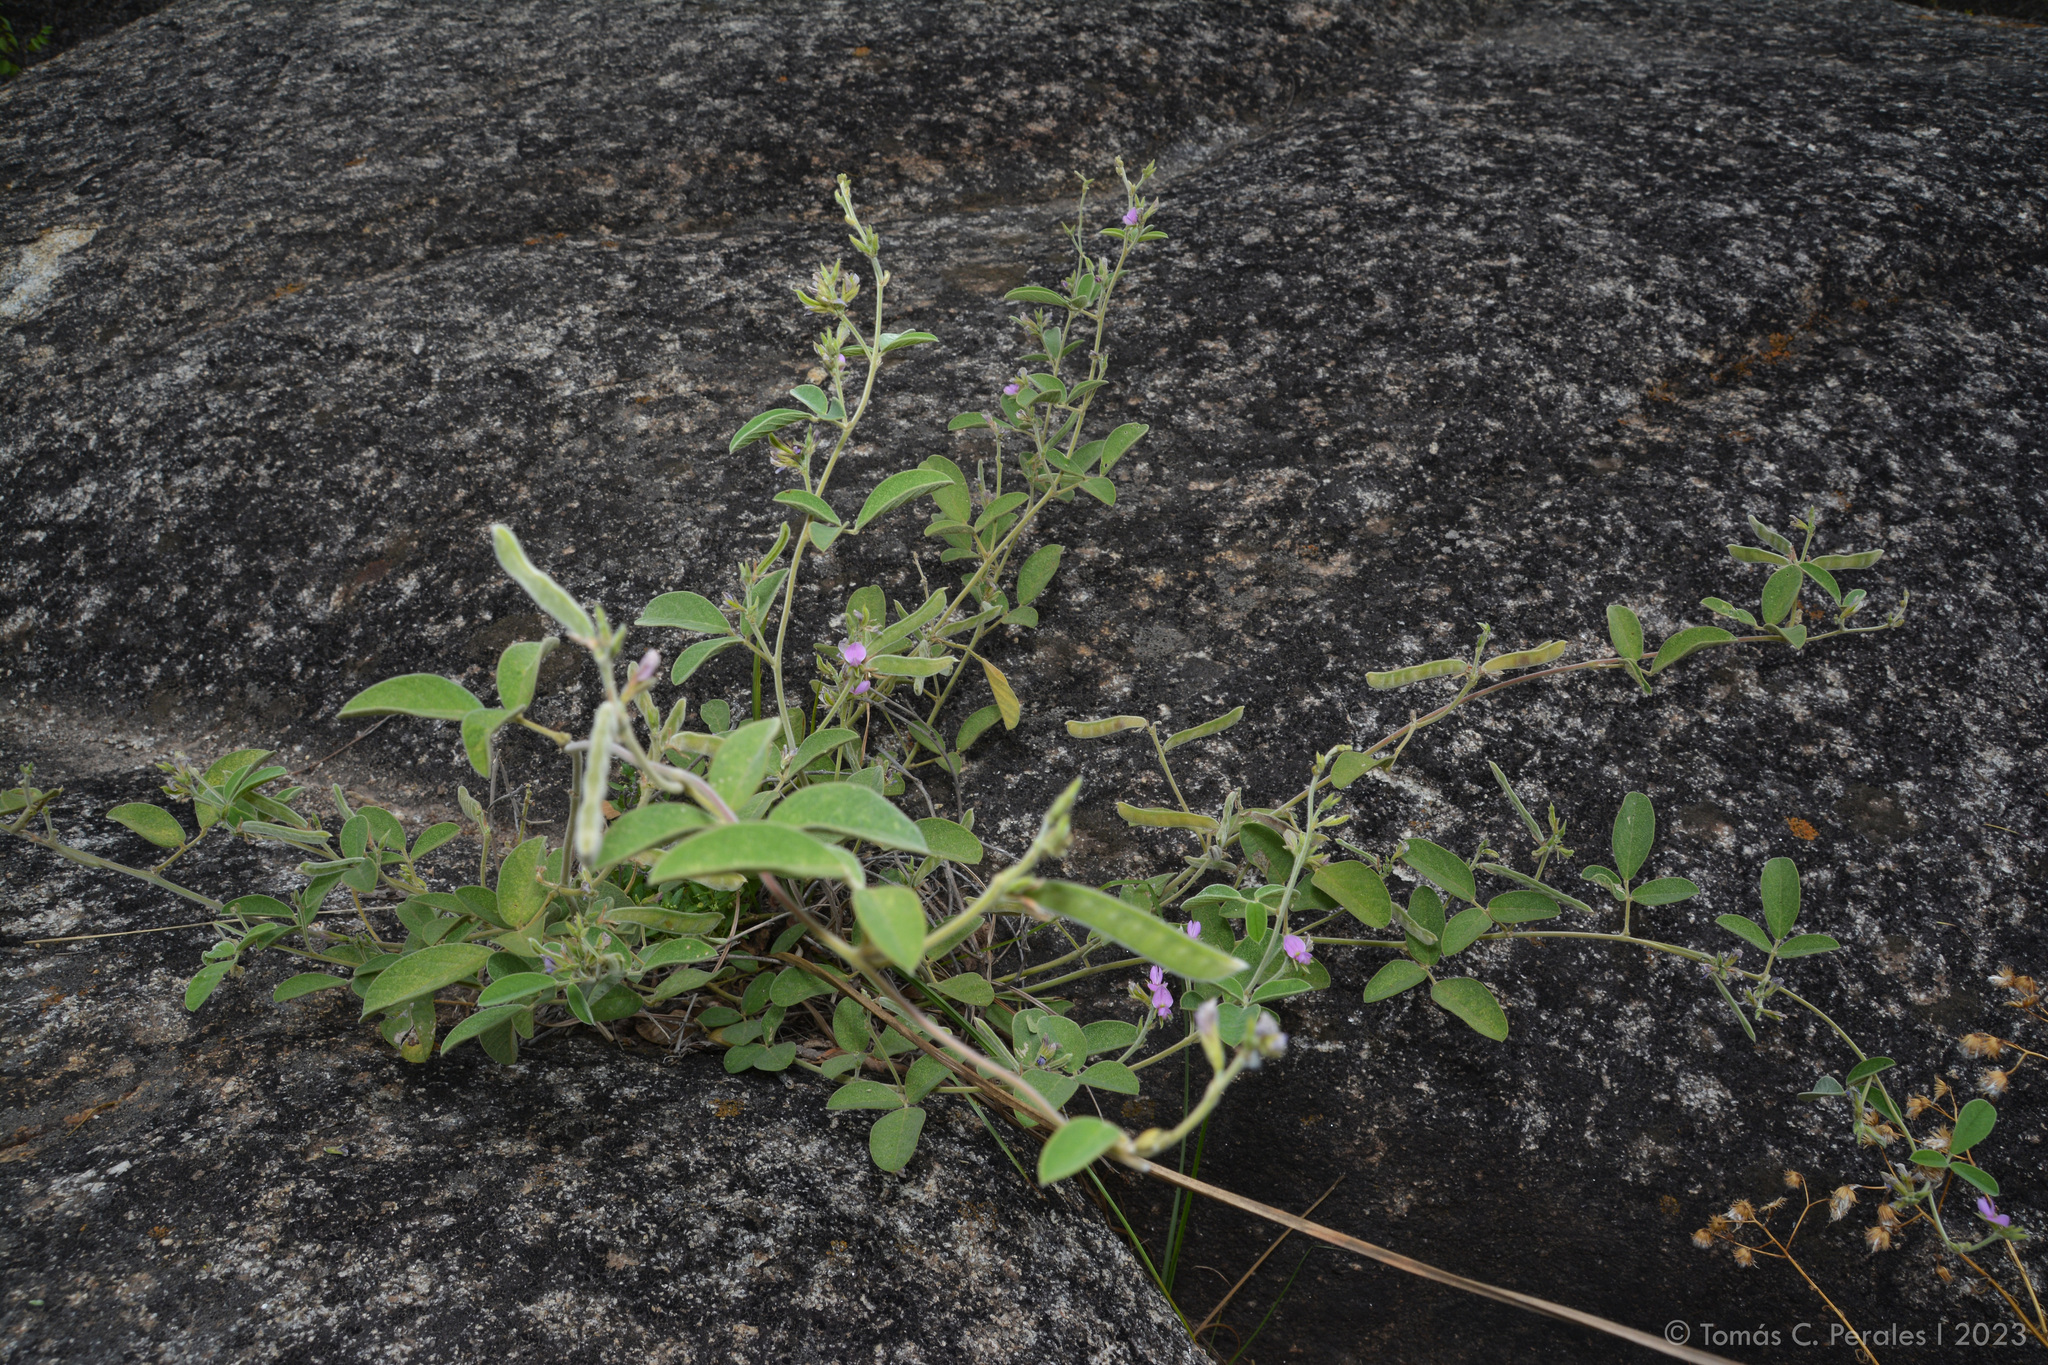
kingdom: Plantae
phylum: Tracheophyta
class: Magnoliopsida
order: Fabales
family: Fabaceae
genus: Galactia
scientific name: Galactia latisiliqua
